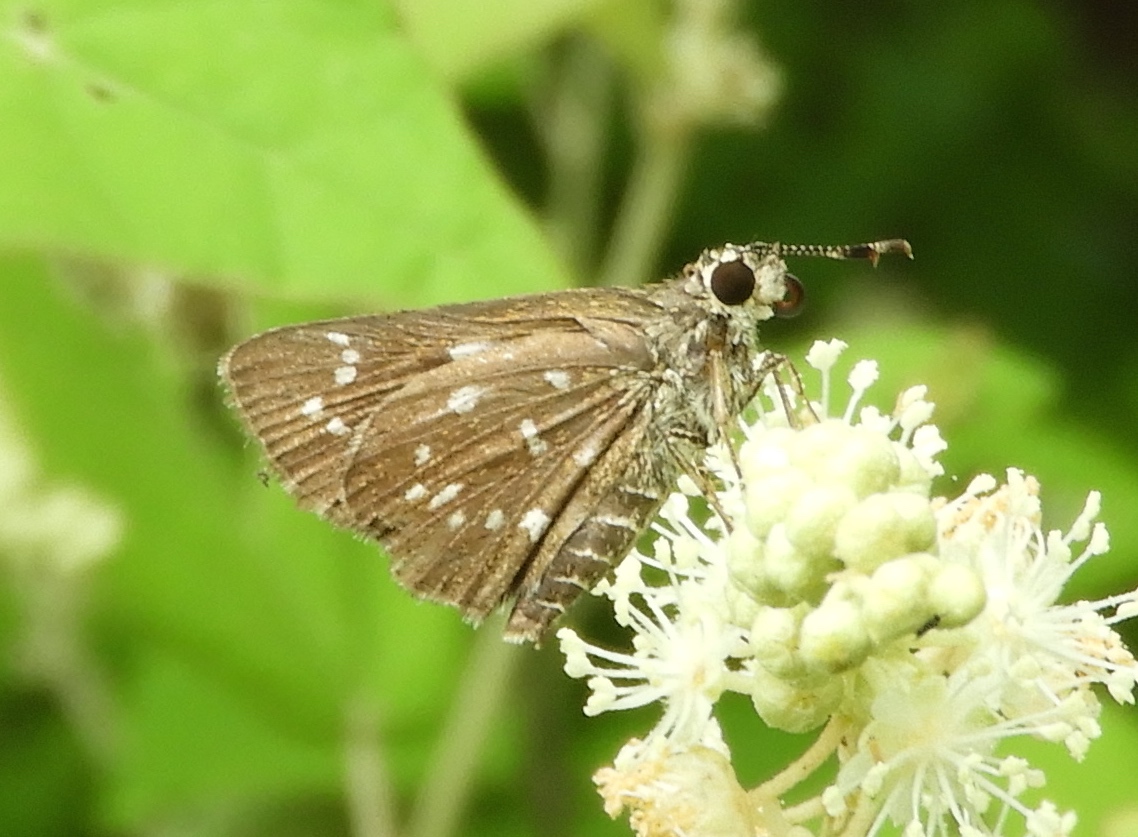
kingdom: Animalia
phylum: Arthropoda
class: Insecta
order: Lepidoptera
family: Hesperiidae
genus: Mastor
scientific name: Mastor tolteca
